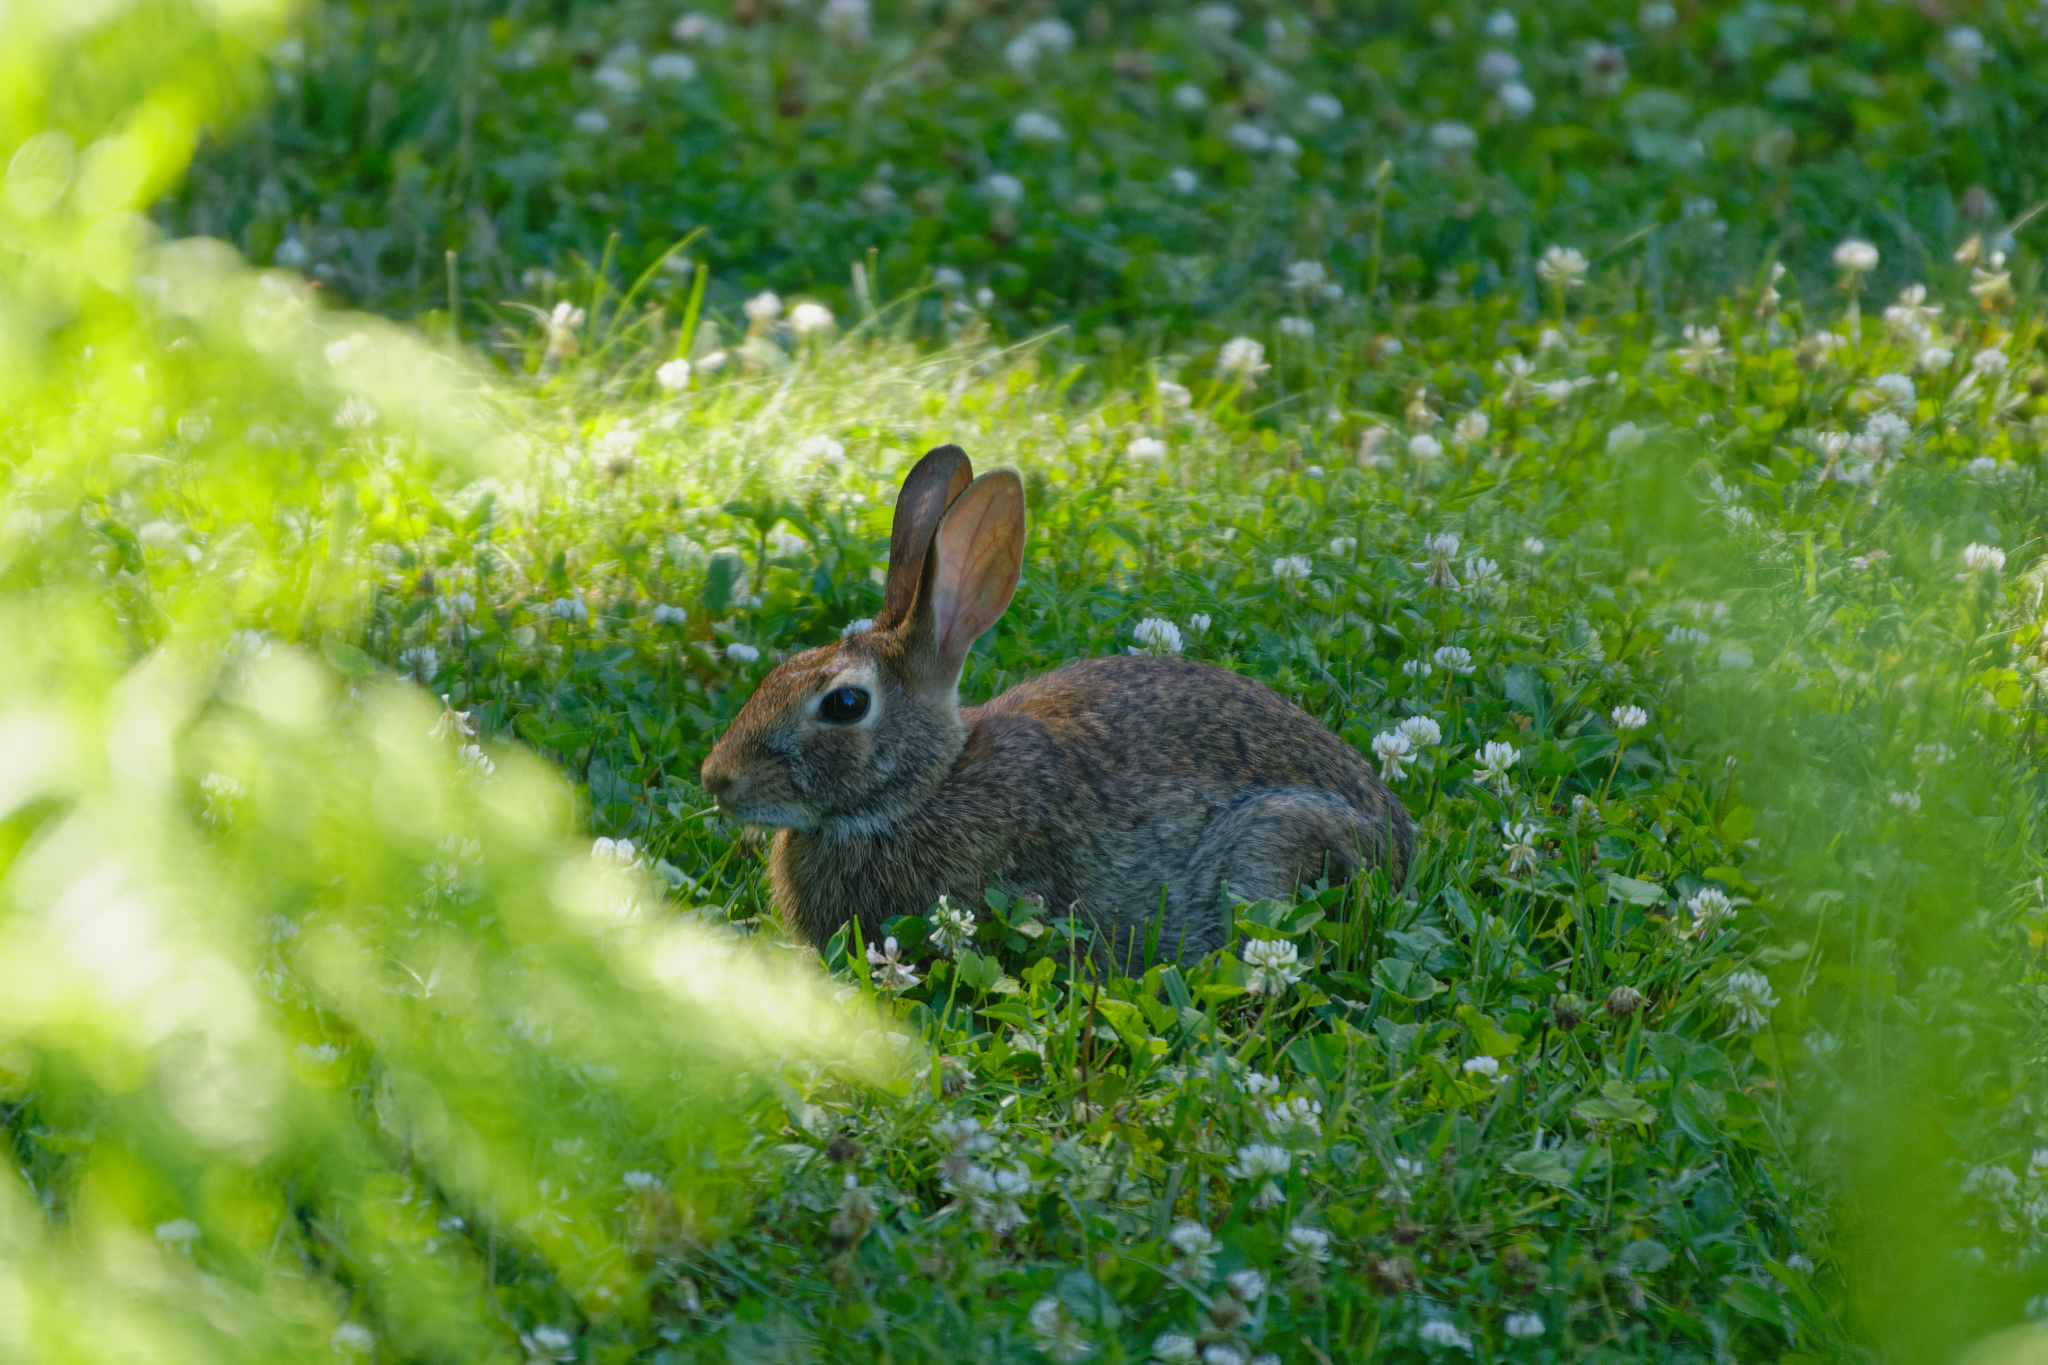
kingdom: Animalia
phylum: Chordata
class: Mammalia
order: Lagomorpha
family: Leporidae
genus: Sylvilagus
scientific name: Sylvilagus floridanus
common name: Eastern cottontail
